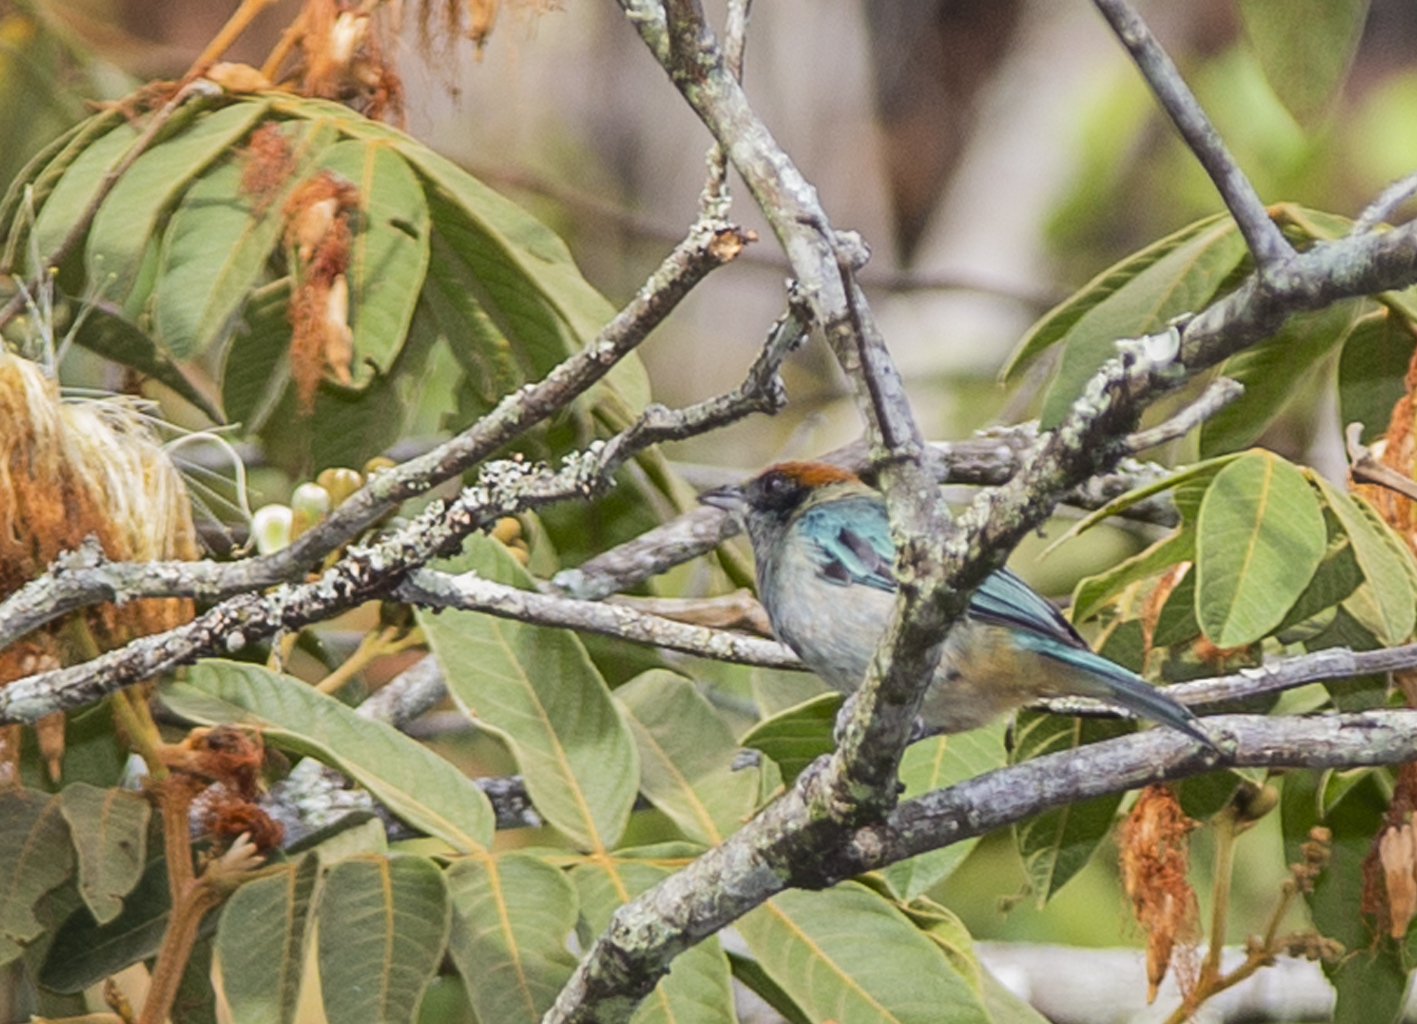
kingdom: Animalia
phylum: Chordata
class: Aves
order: Passeriformes
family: Thraupidae
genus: Stilpnia
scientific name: Stilpnia vitriolina
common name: Scrub tanager
